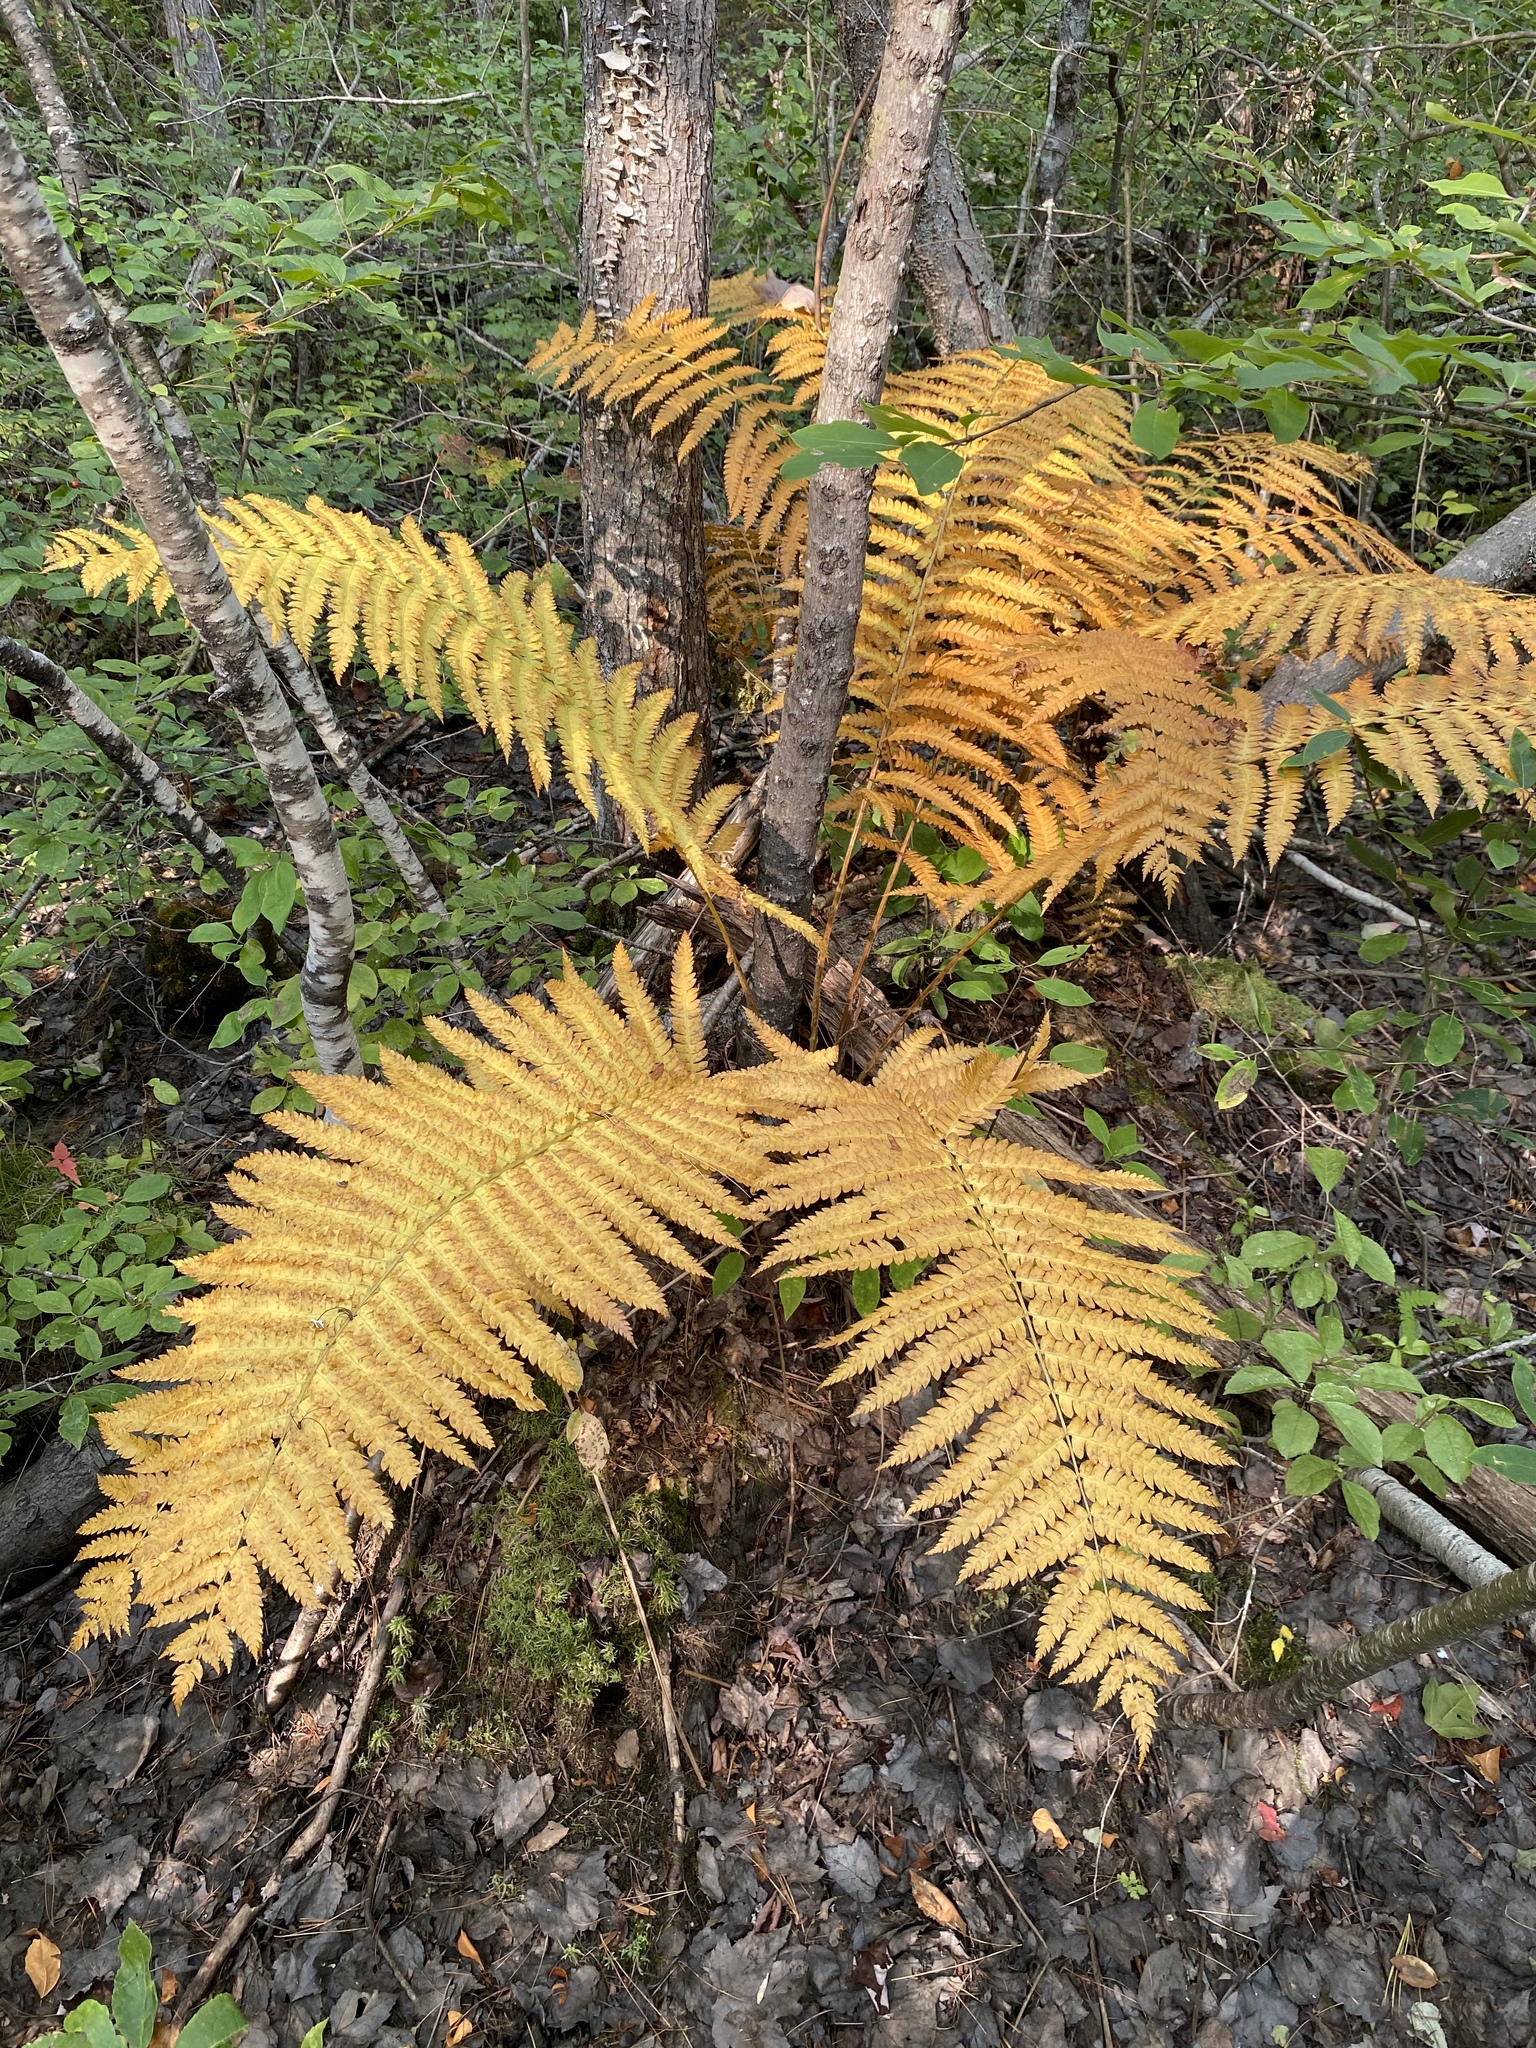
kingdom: Plantae
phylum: Tracheophyta
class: Polypodiopsida
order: Osmundales
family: Osmundaceae
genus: Osmundastrum
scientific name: Osmundastrum cinnamomeum
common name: Cinnamon fern
